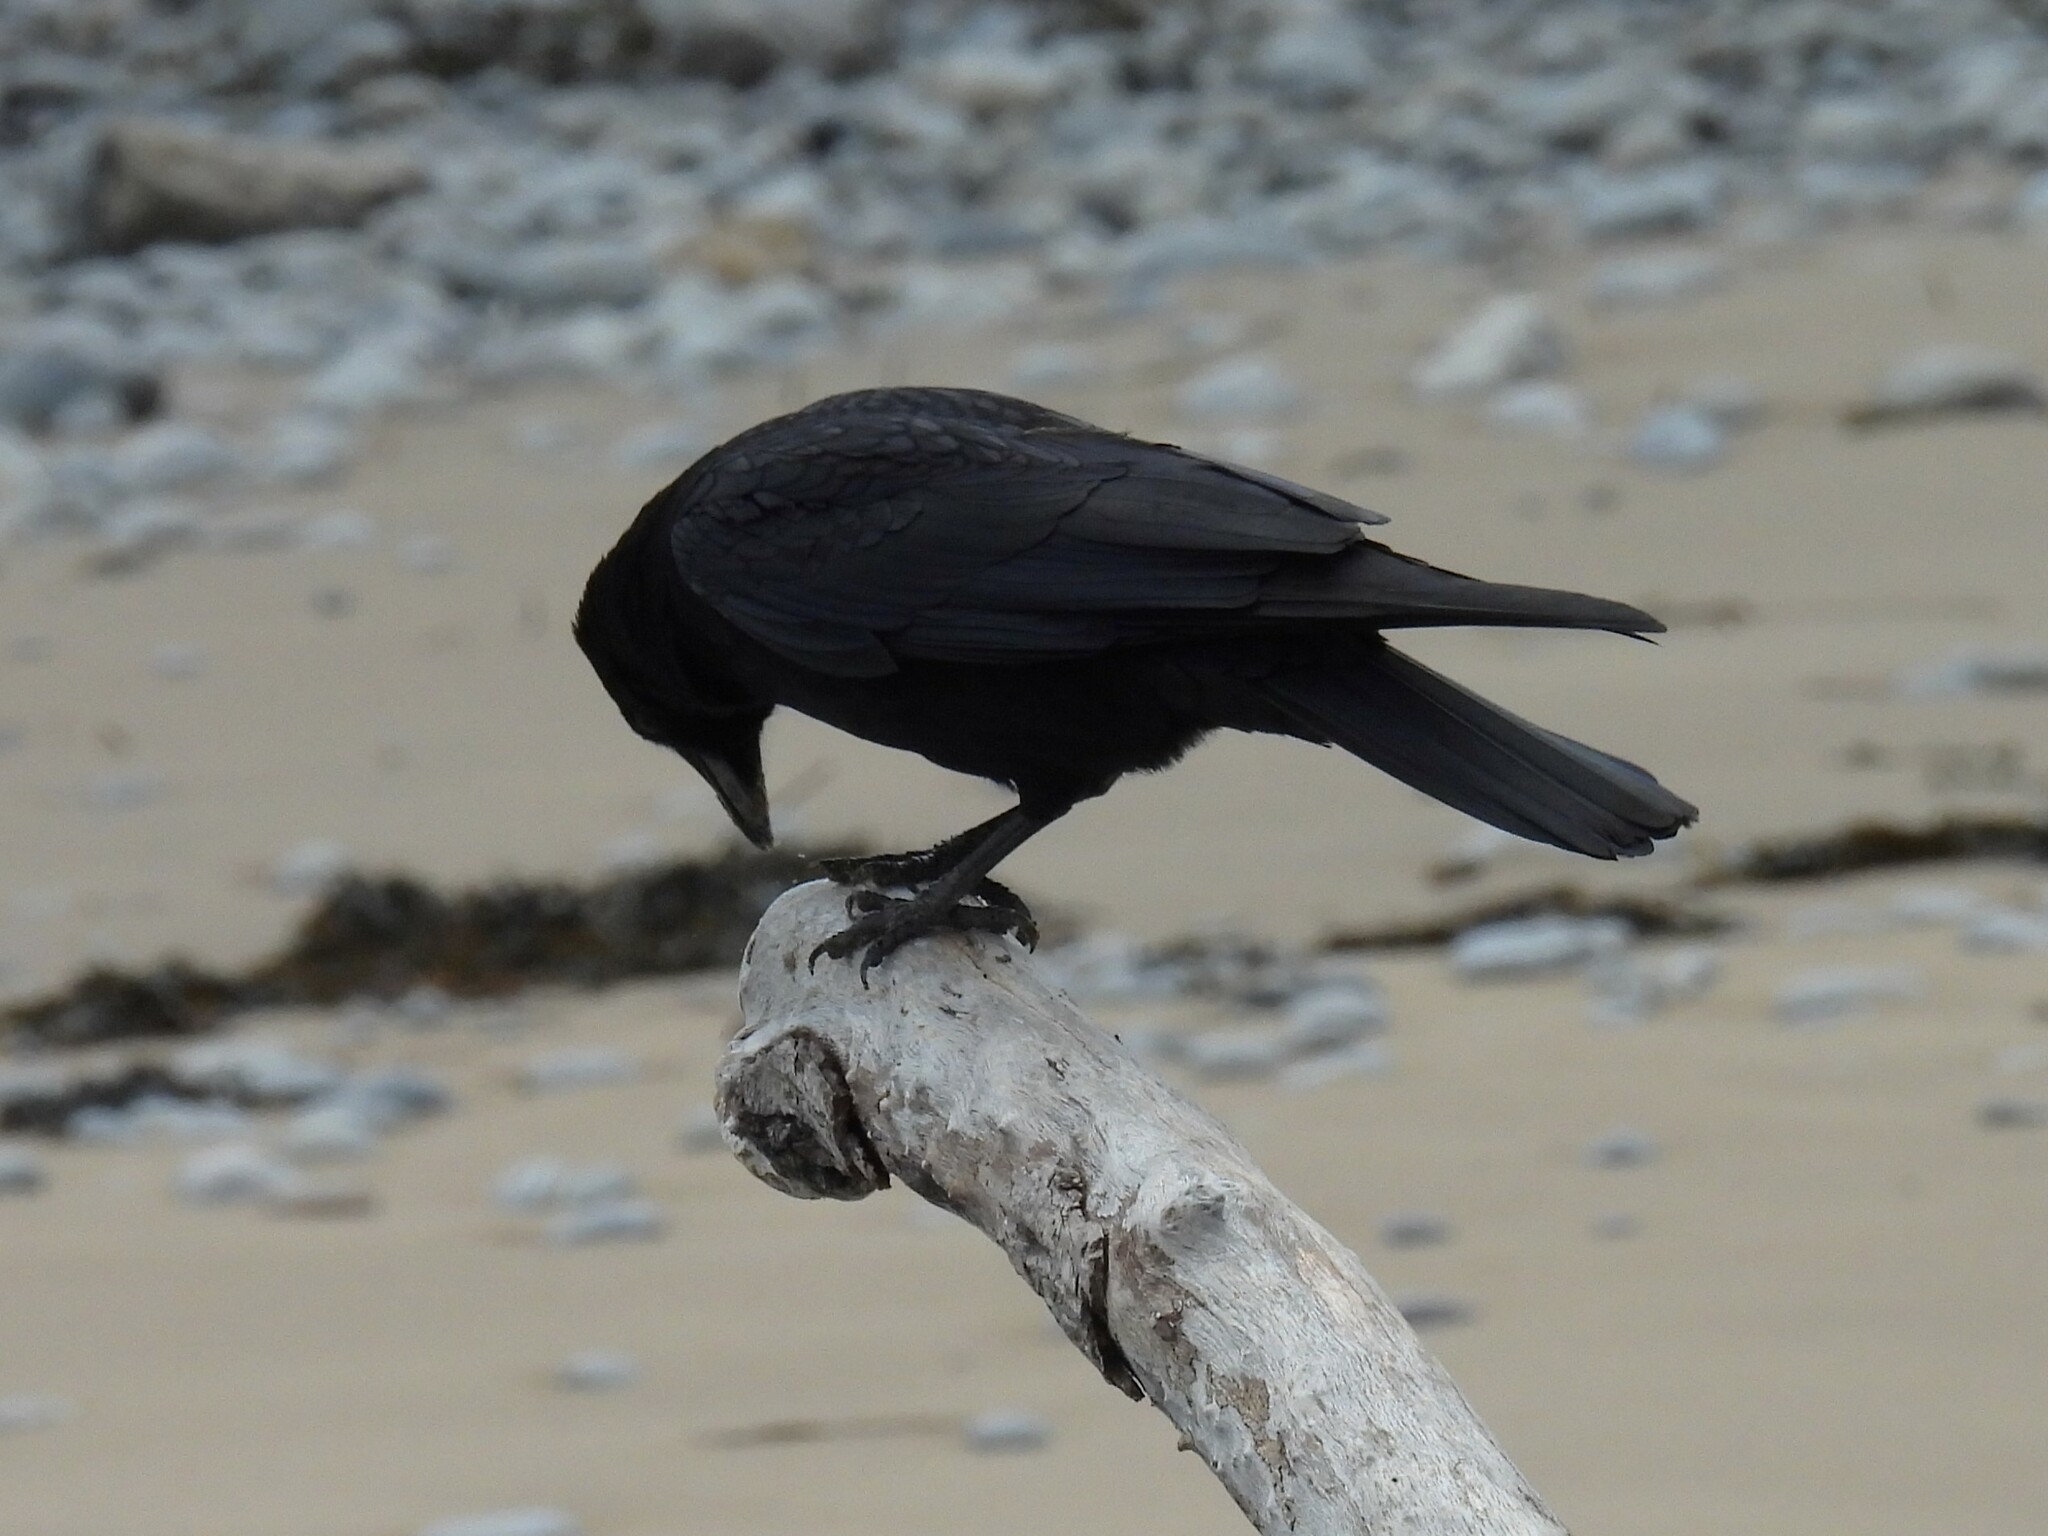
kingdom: Animalia
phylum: Chordata
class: Aves
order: Passeriformes
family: Corvidae
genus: Corvus
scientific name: Corvus corone
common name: Carrion crow
